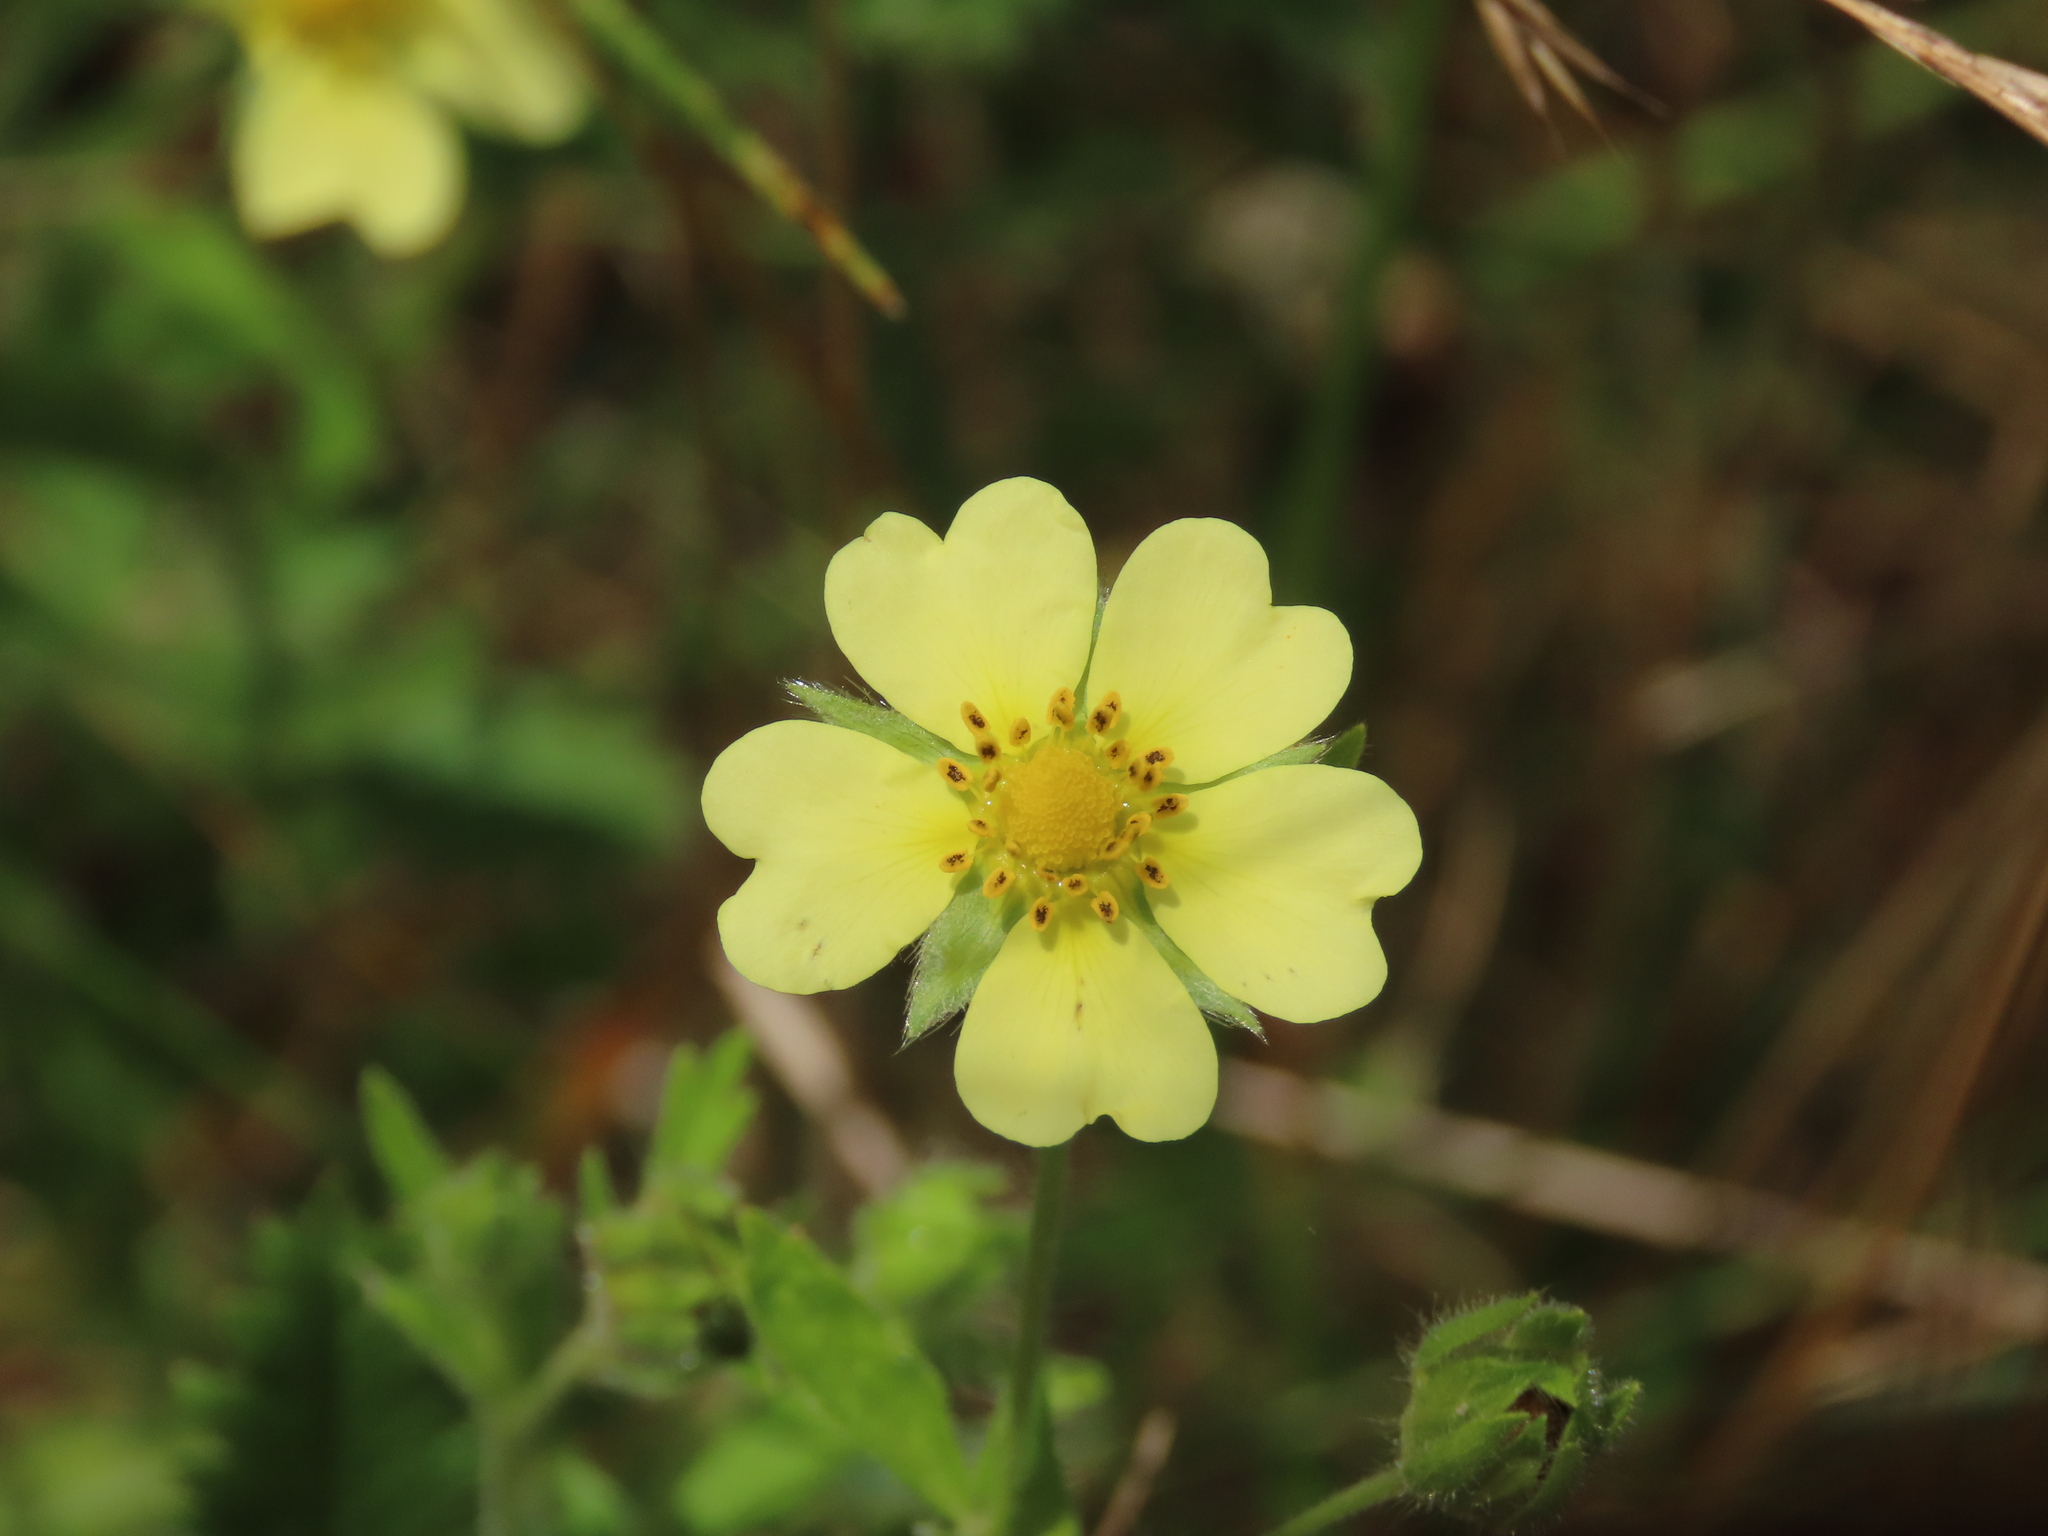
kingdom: Plantae
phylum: Tracheophyta
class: Magnoliopsida
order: Rosales
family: Rosaceae
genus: Potentilla
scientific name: Potentilla recta
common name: Sulphur cinquefoil
